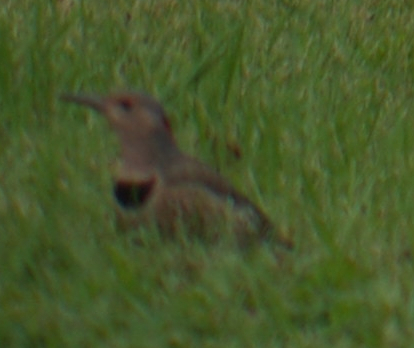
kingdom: Animalia
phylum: Chordata
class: Aves
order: Piciformes
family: Picidae
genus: Colaptes
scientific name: Colaptes auratus
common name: Northern flicker
